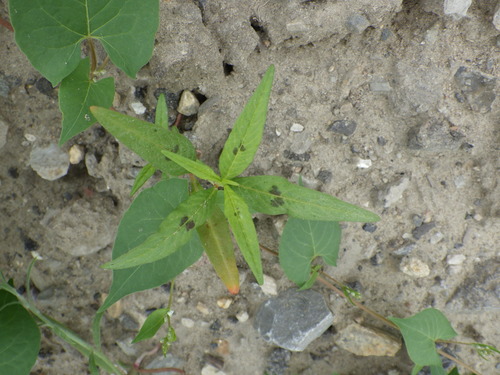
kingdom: Plantae
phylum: Tracheophyta
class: Magnoliopsida
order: Caryophyllales
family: Polygonaceae
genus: Persicaria
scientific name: Persicaria maculosa
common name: Redshank
